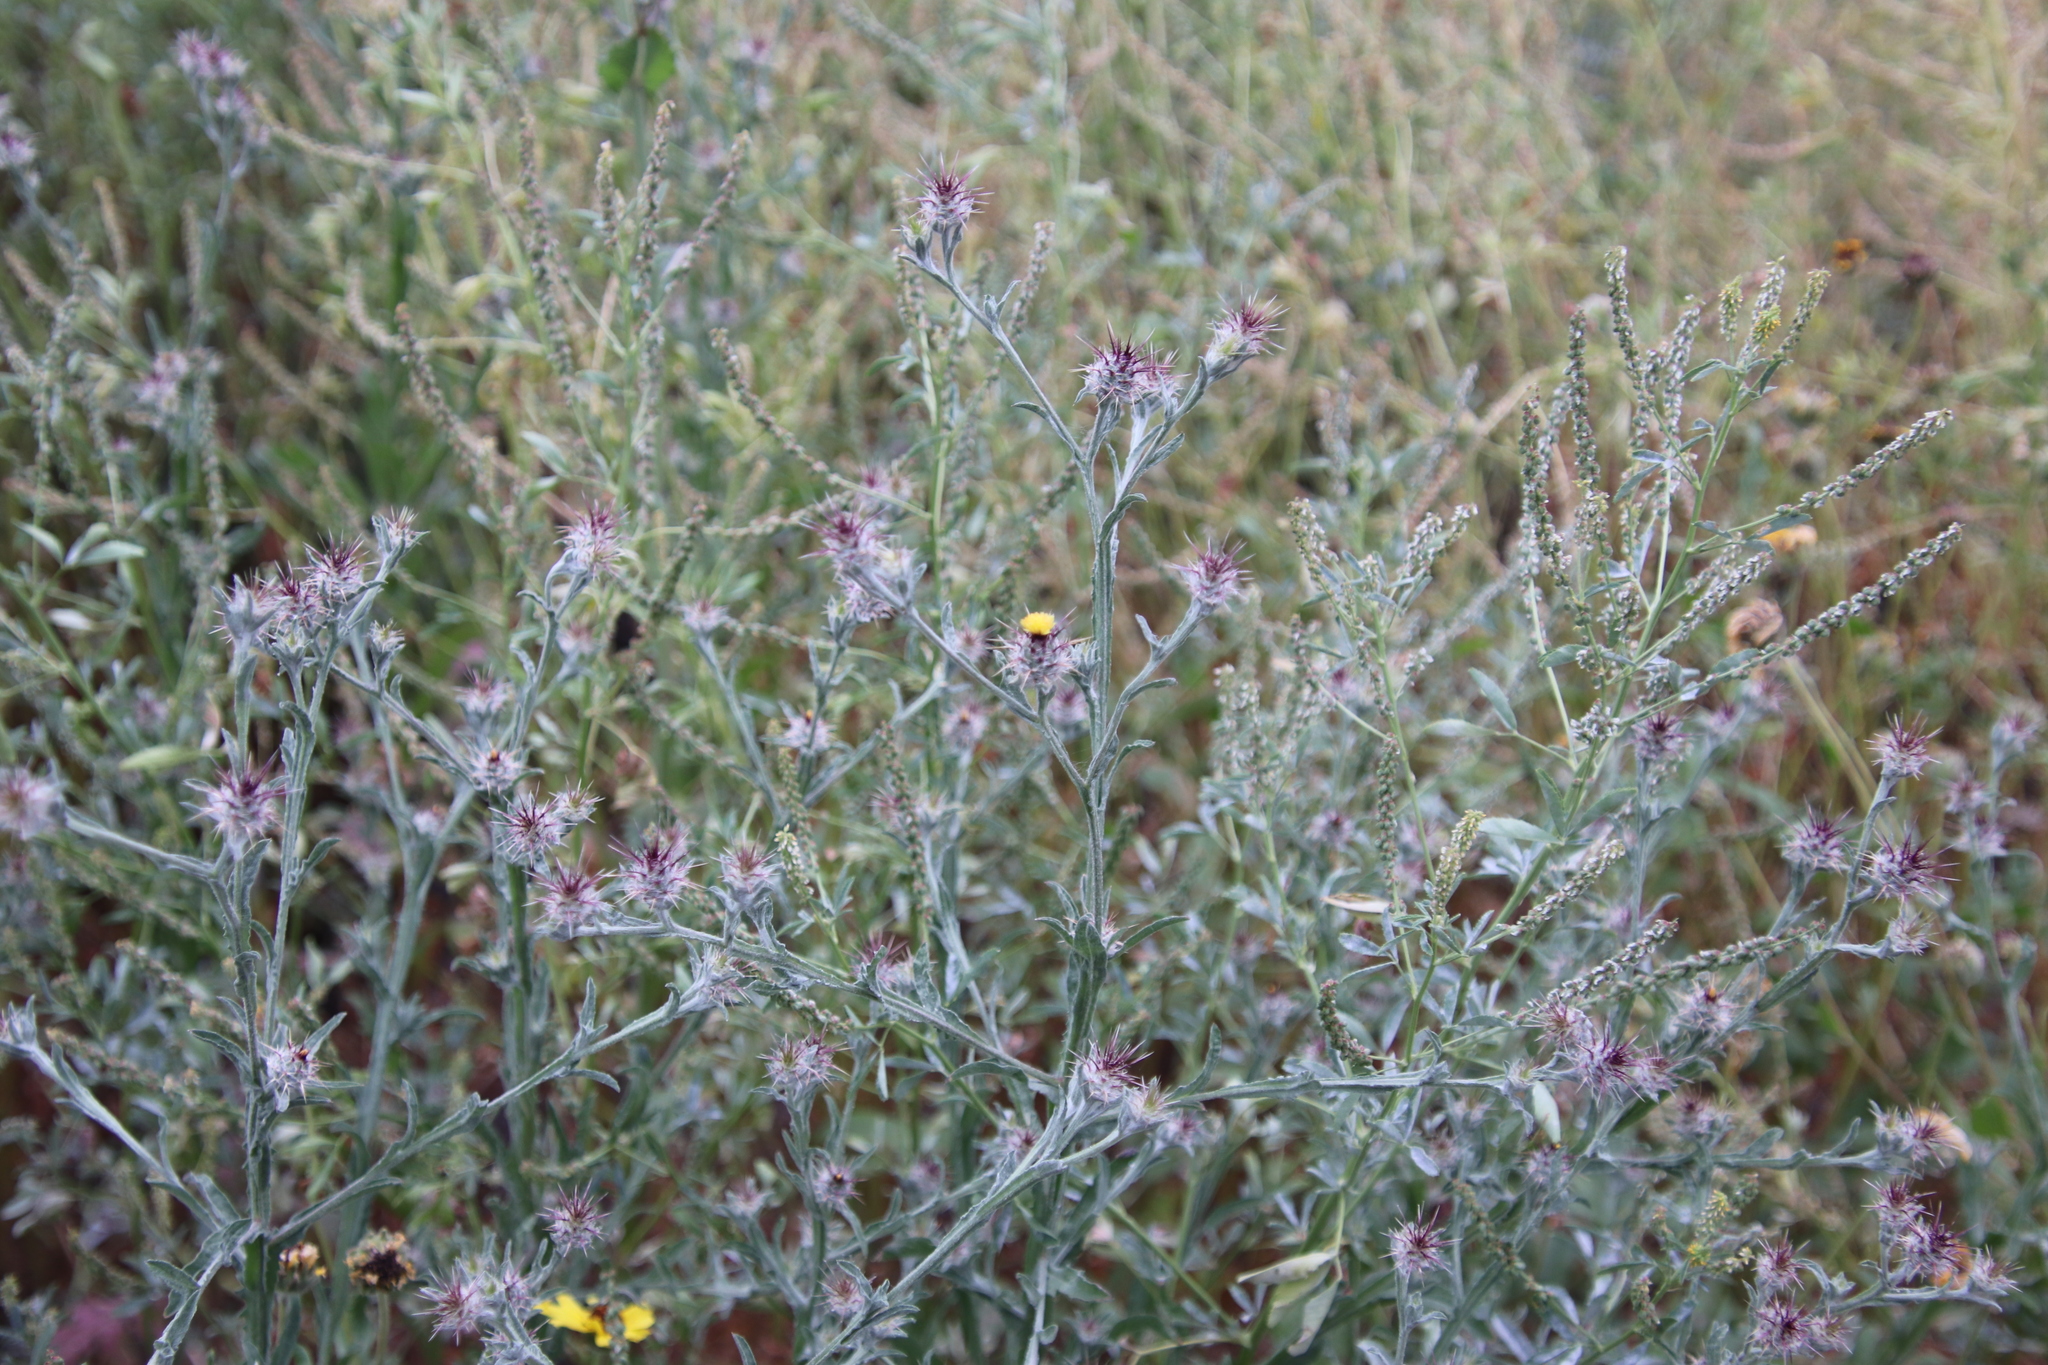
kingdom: Plantae
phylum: Tracheophyta
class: Magnoliopsida
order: Asterales
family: Asteraceae
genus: Centaurea
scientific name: Centaurea melitensis
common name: Maltese star-thistle
